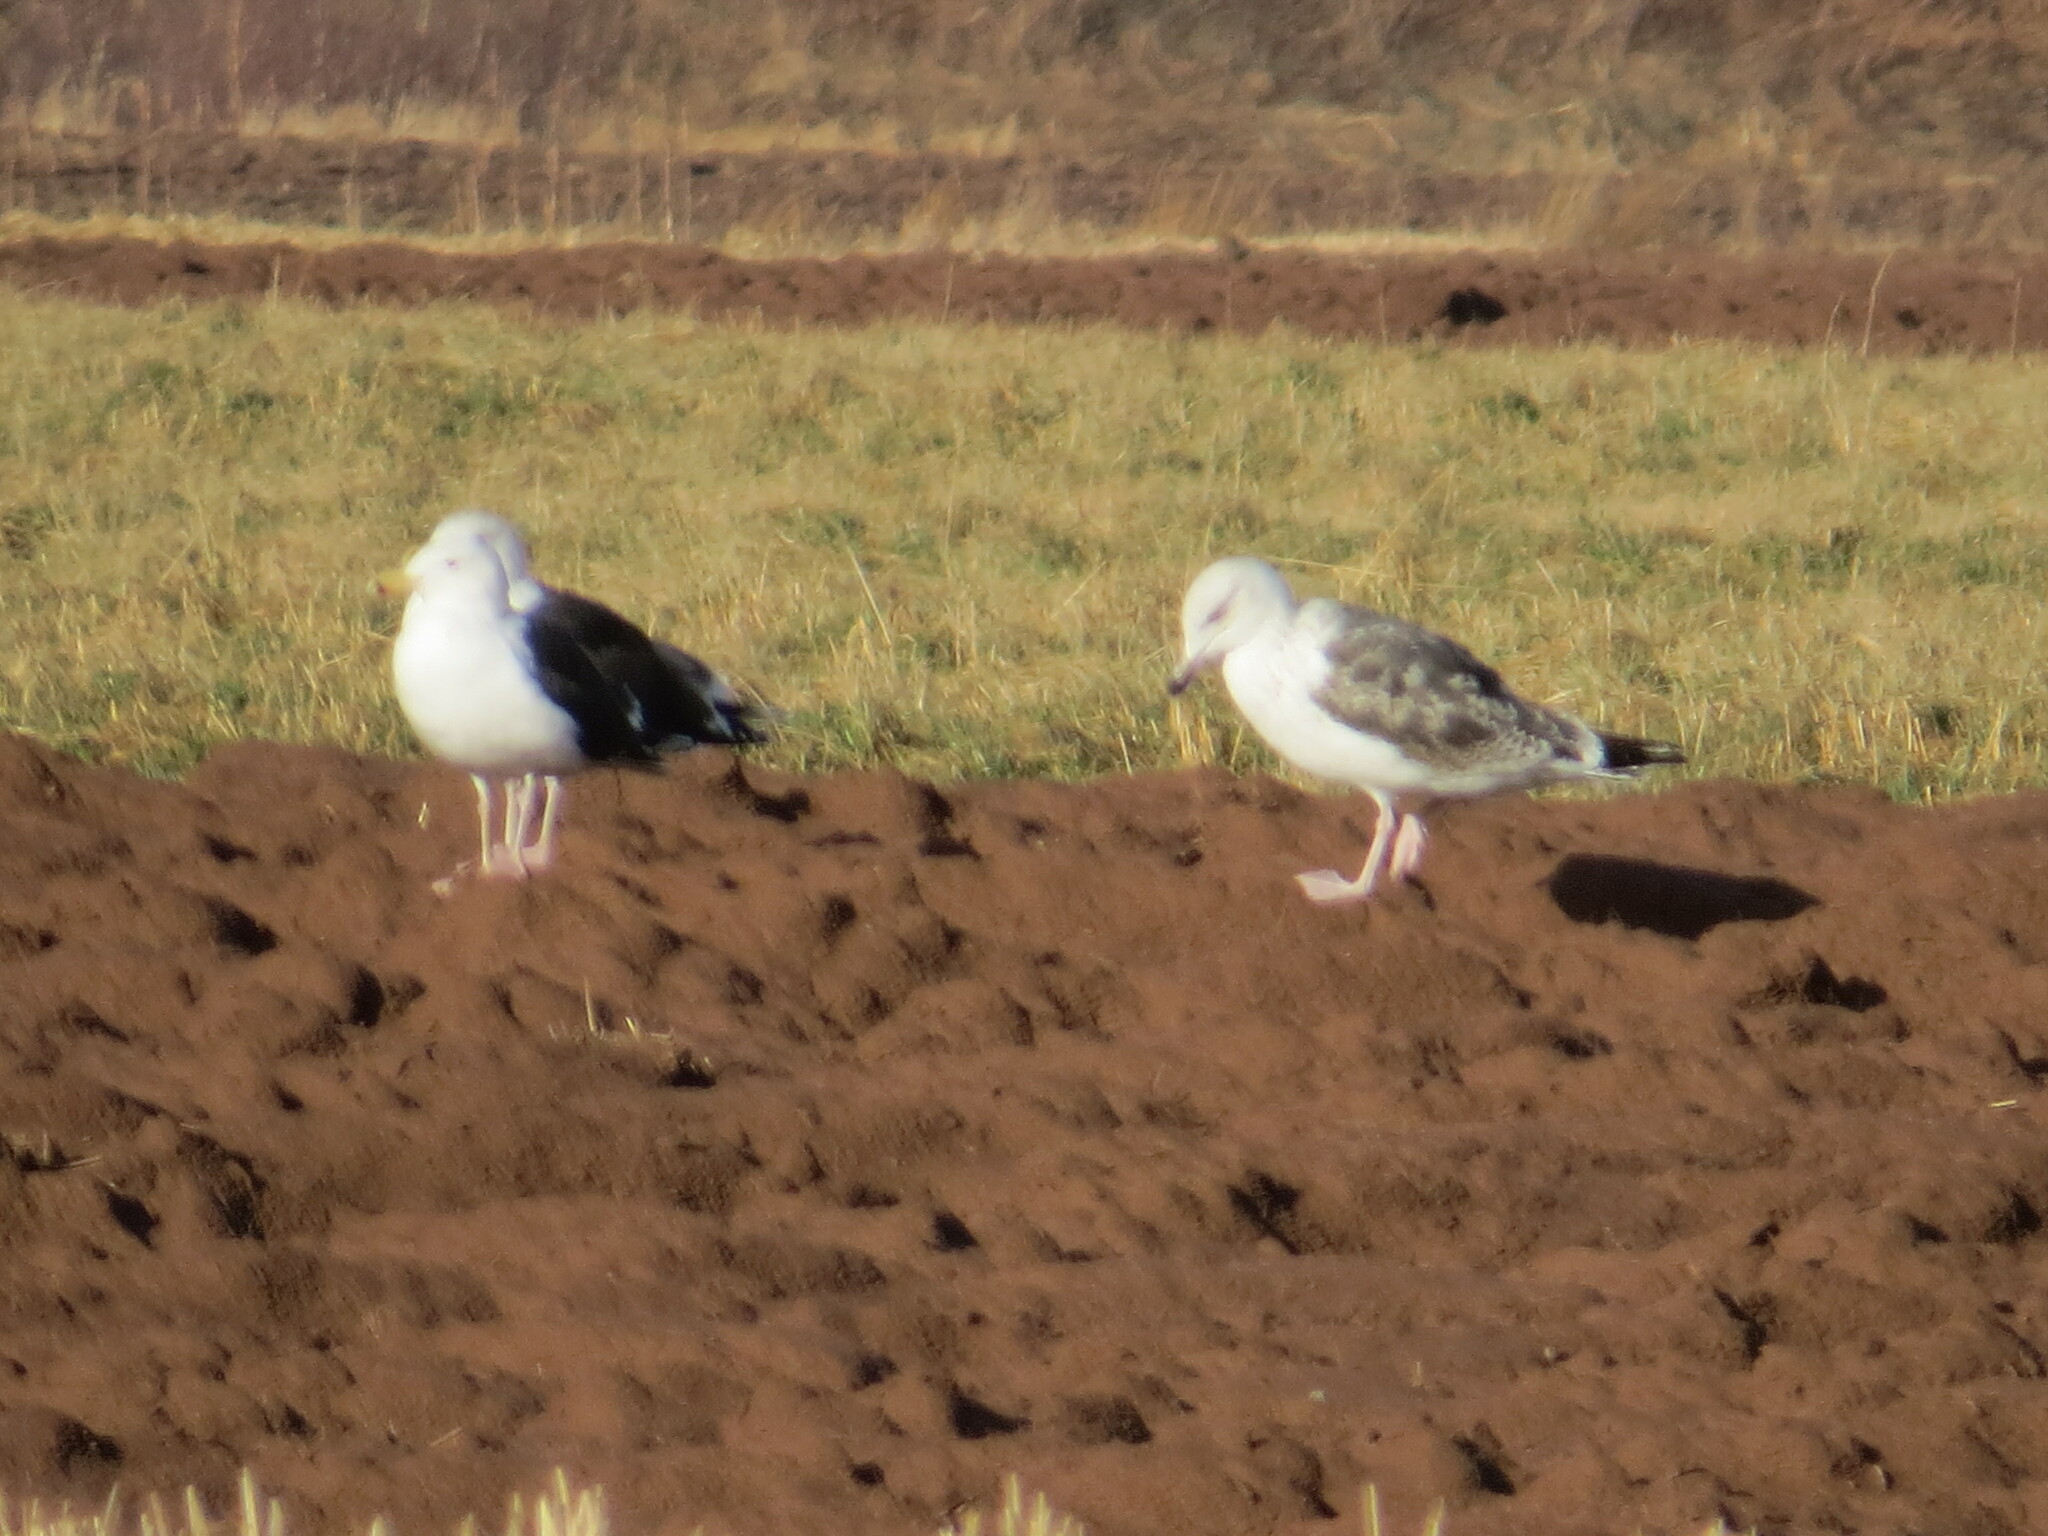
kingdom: Animalia
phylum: Chordata
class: Aves
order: Charadriiformes
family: Laridae
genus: Larus
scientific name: Larus marinus
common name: Great black-backed gull
